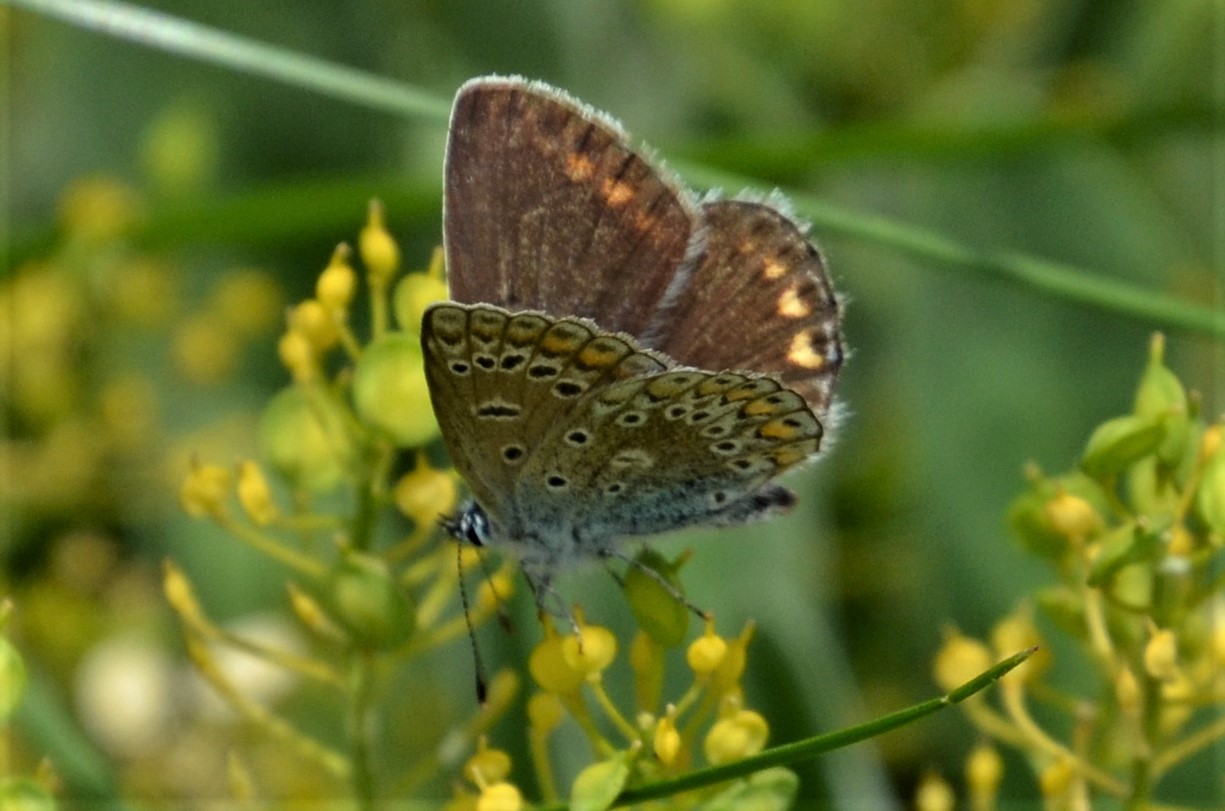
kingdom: Animalia
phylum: Arthropoda
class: Insecta
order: Lepidoptera
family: Lycaenidae
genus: Polyommatus
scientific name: Polyommatus icarus
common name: Common blue
